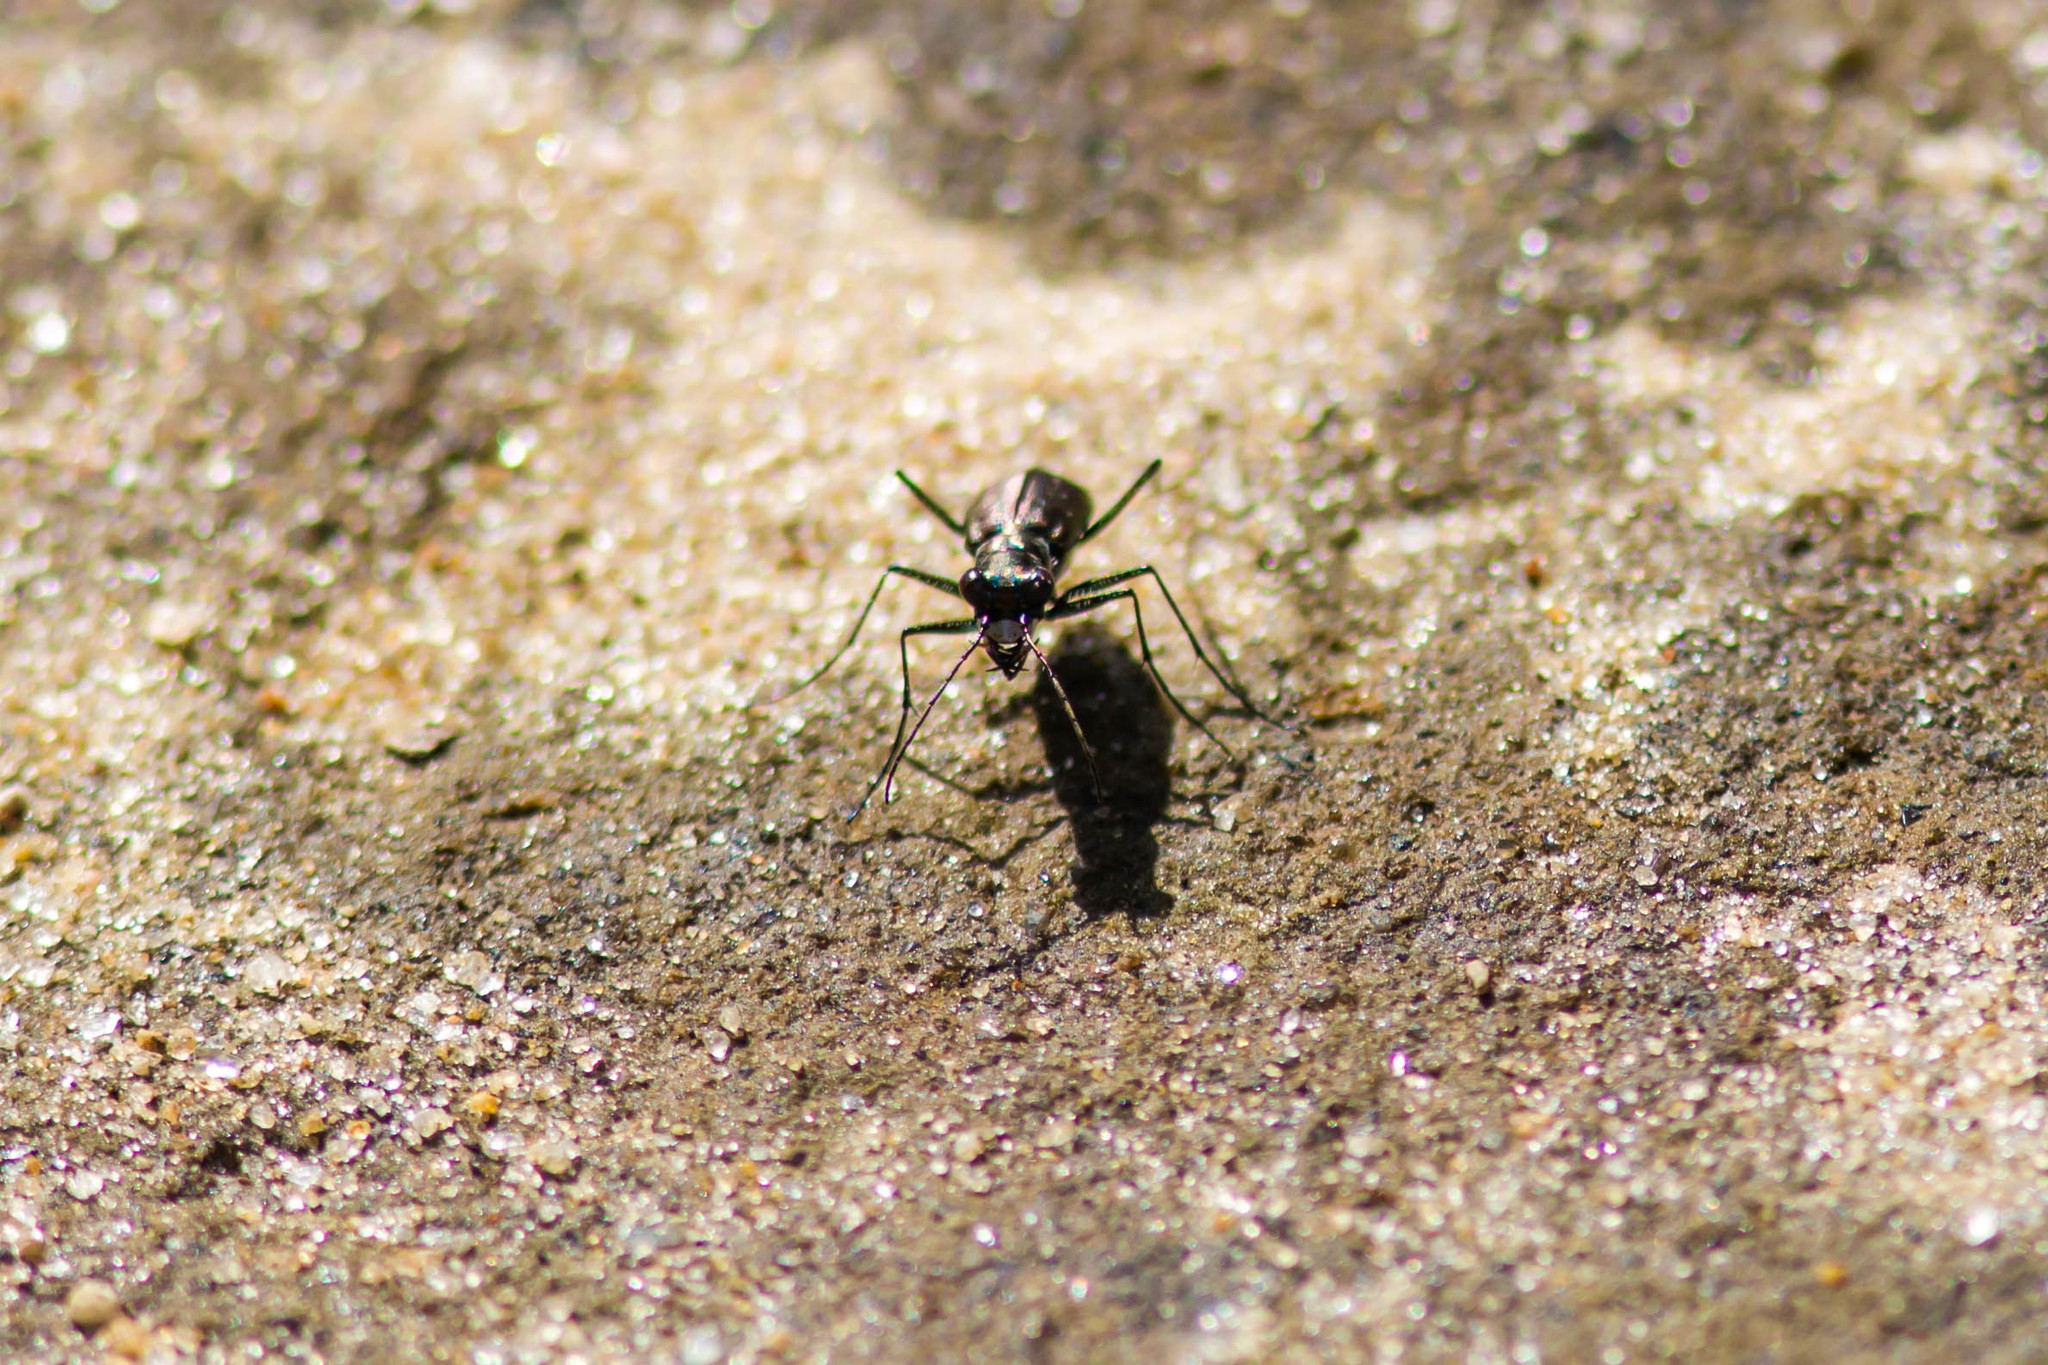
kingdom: Animalia
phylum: Arthropoda
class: Insecta
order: Coleoptera
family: Carabidae
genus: Cicindela
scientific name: Cicindela punctulata
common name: Punctured tiger beetle
